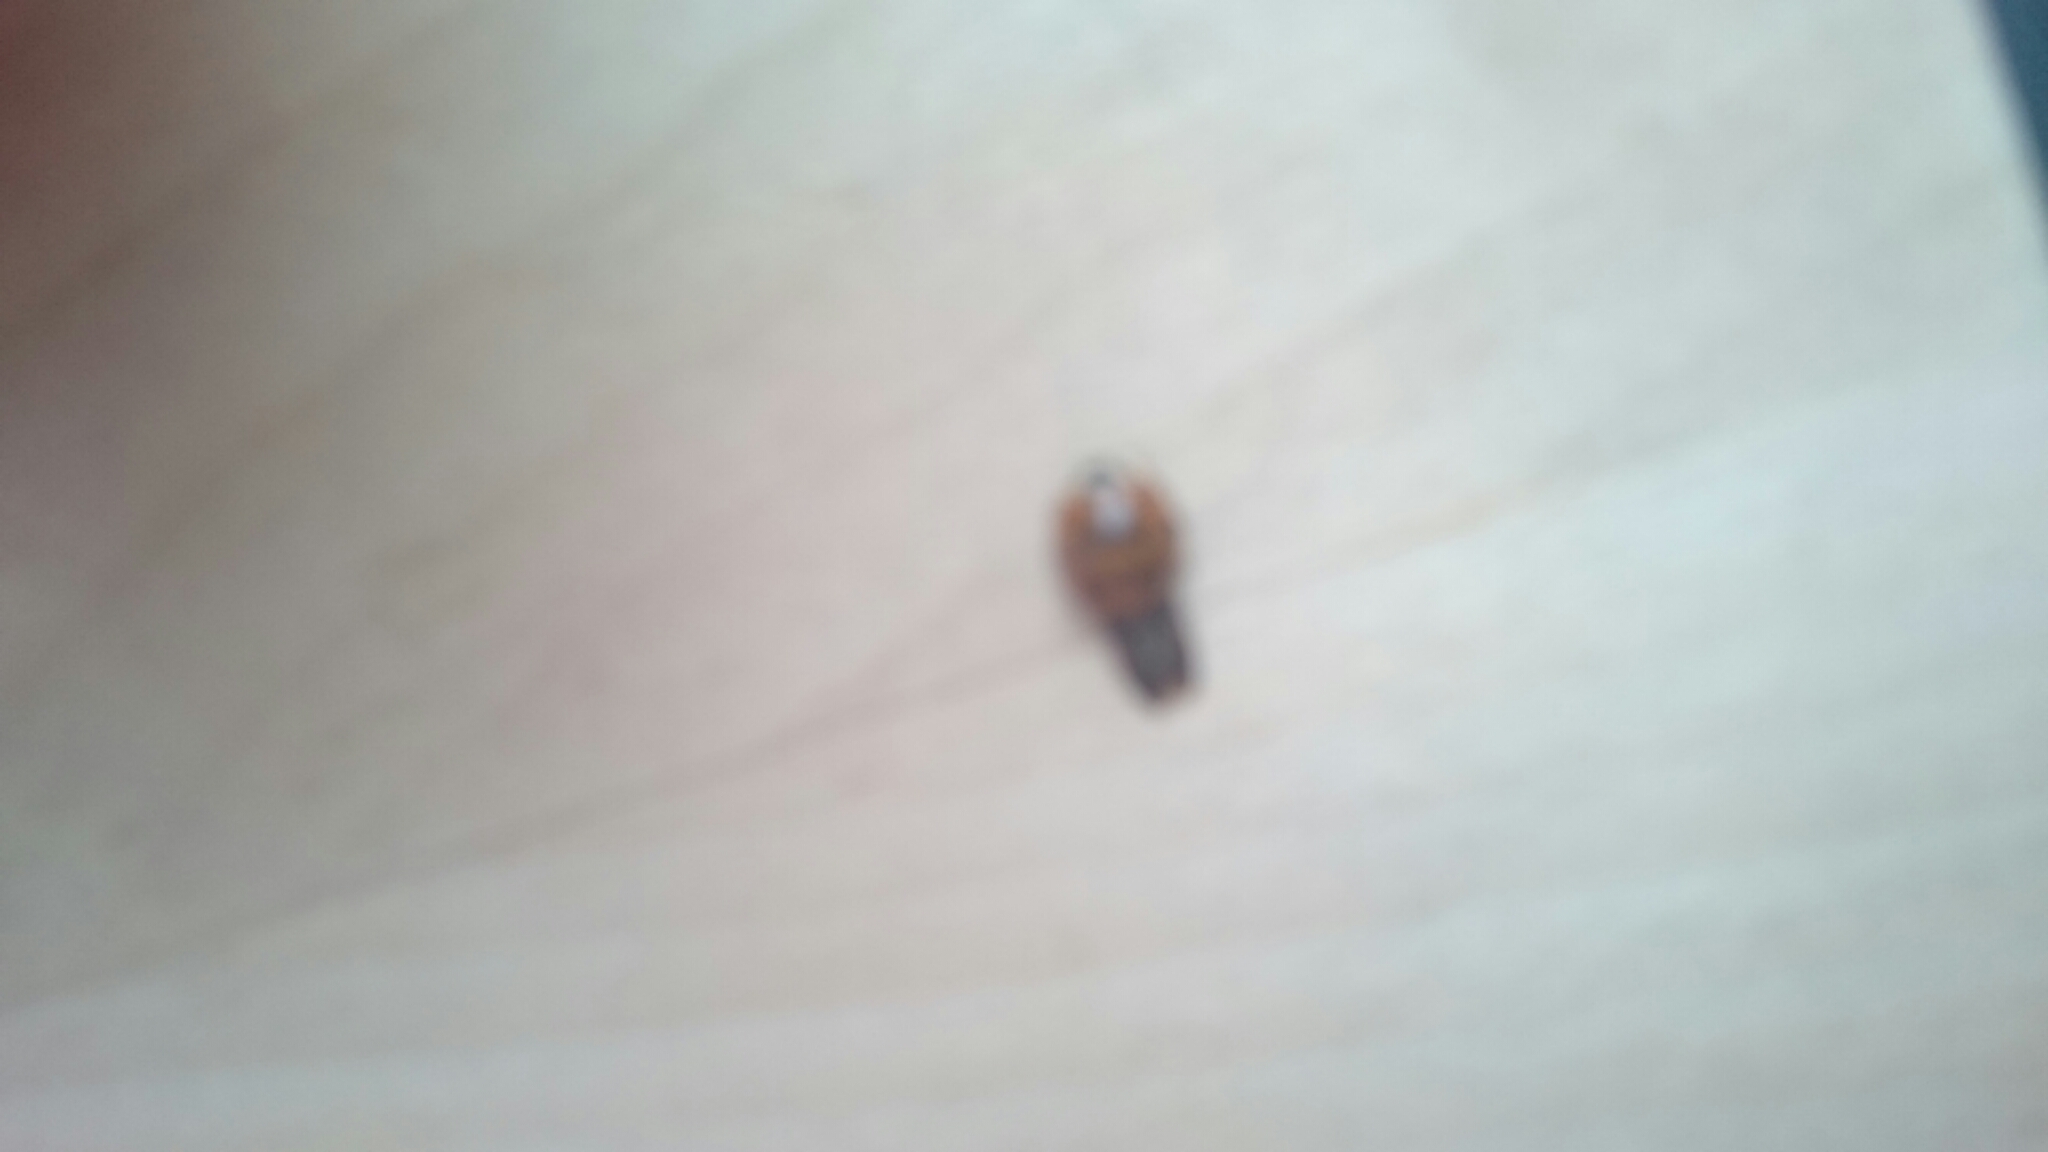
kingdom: Animalia
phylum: Arthropoda
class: Insecta
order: Coleoptera
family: Coccinellidae
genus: Harmonia
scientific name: Harmonia axyridis
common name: Harlequin ladybird
